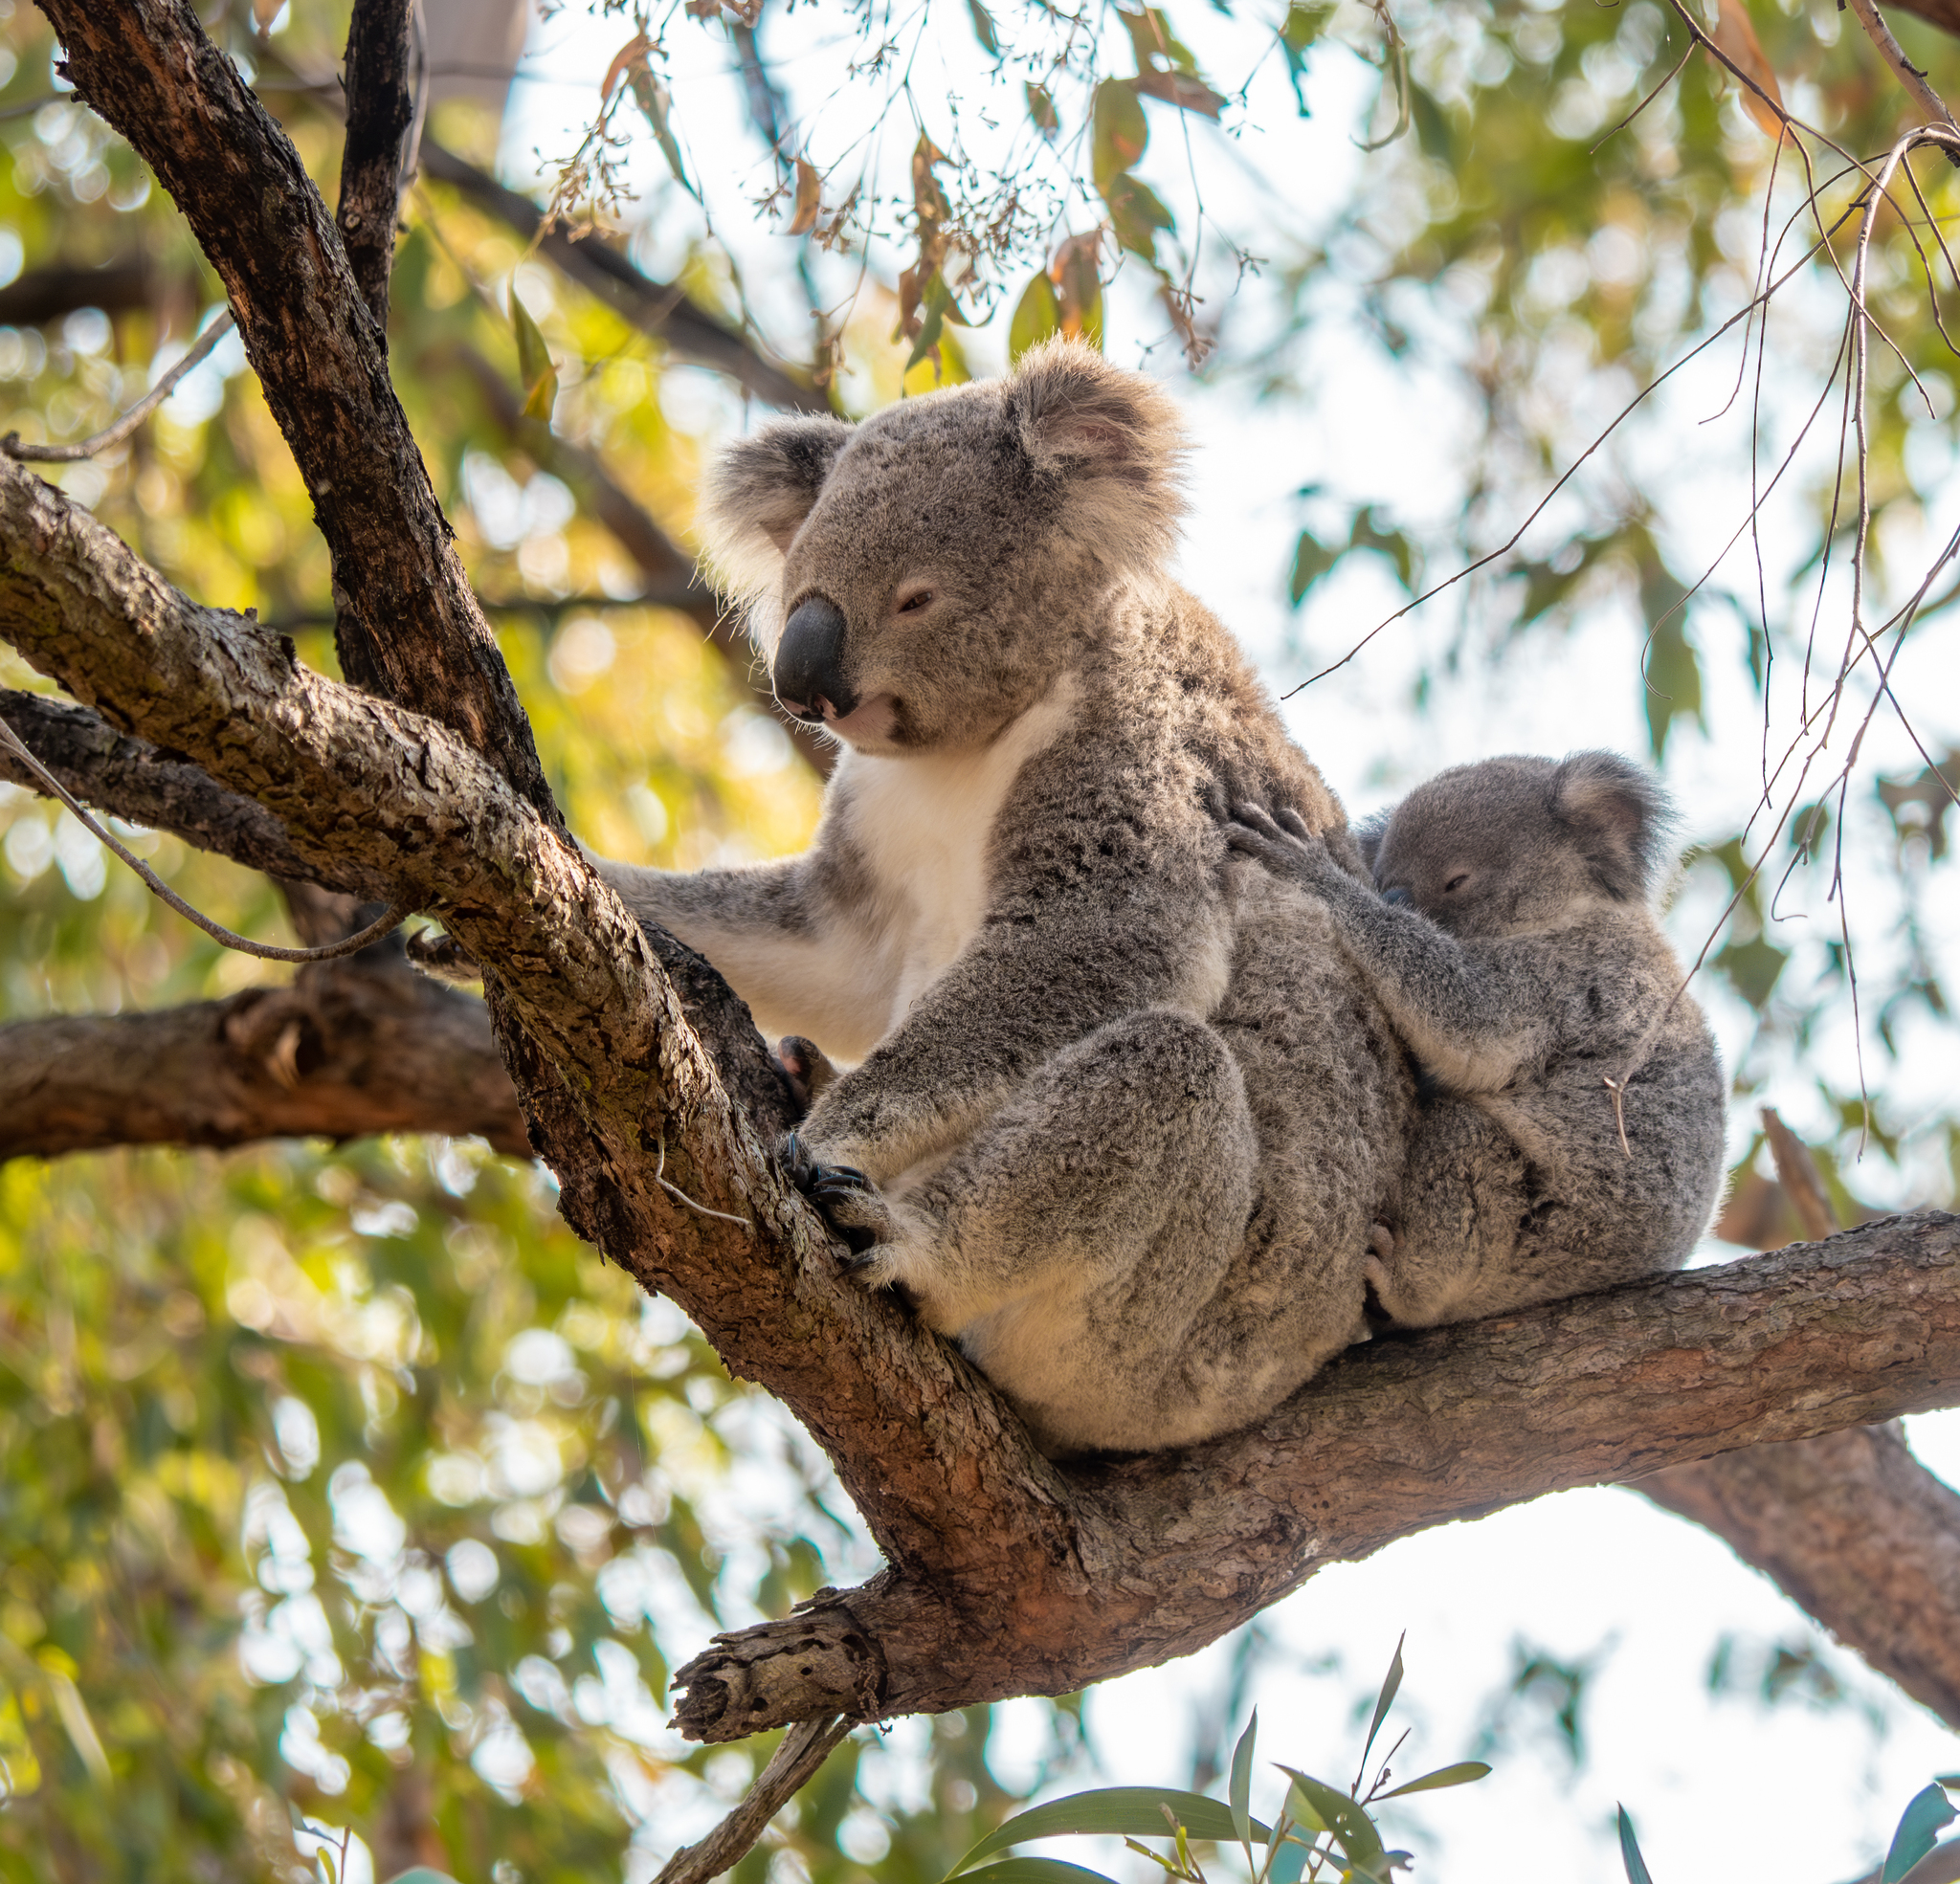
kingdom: Animalia
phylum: Chordata
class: Mammalia
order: Diprotodontia
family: Phascolarctidae
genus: Phascolarctos
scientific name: Phascolarctos cinereus
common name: Koala
